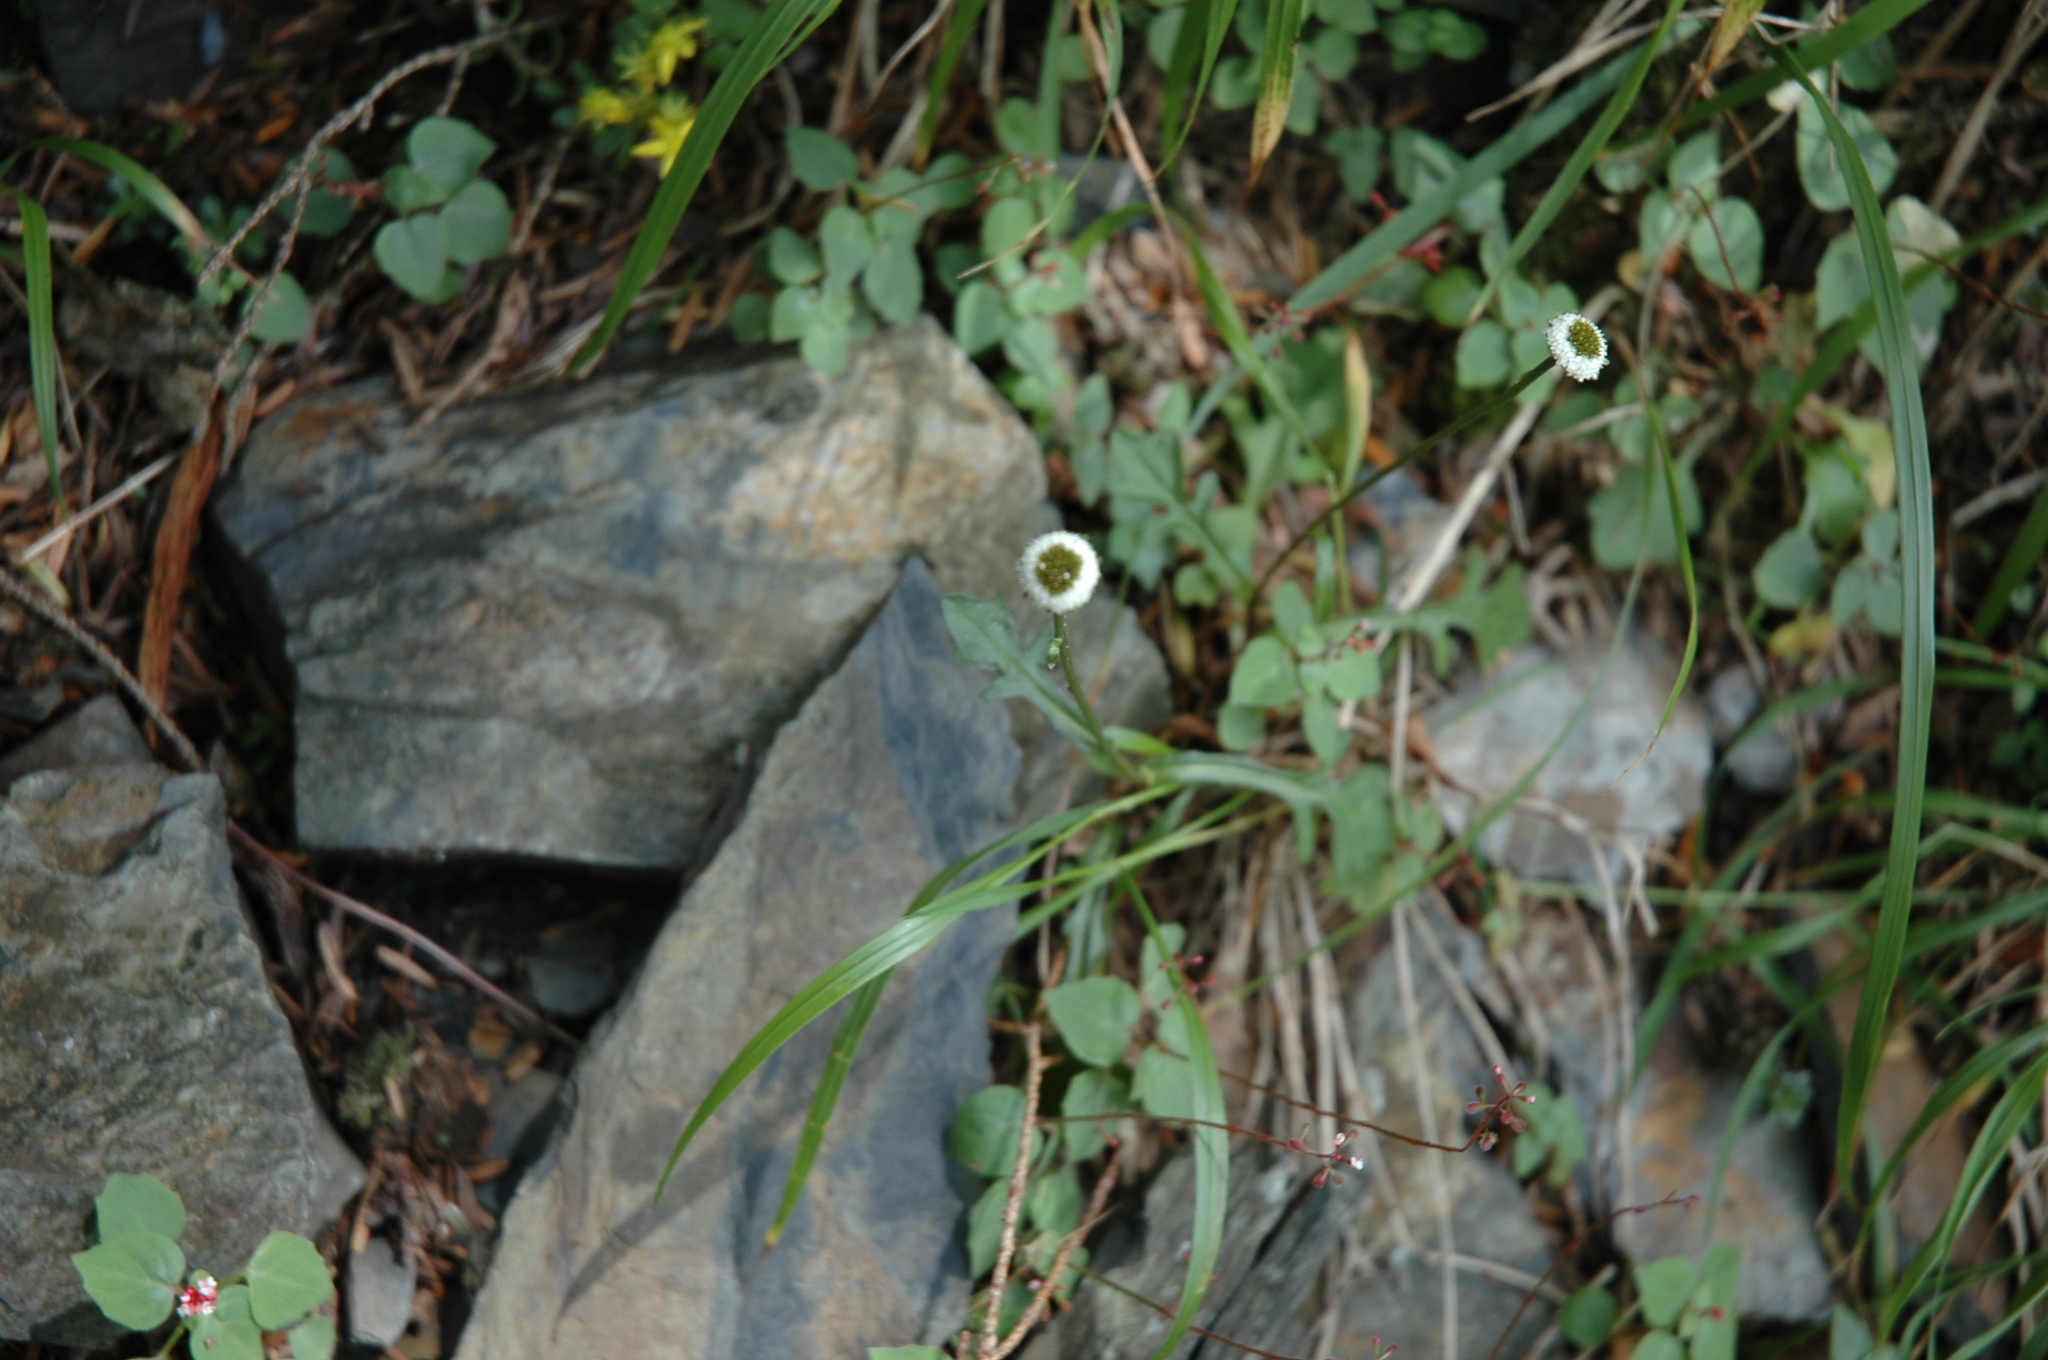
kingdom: Plantae
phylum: Tracheophyta
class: Magnoliopsida
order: Asterales
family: Asteraceae
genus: Myriactis
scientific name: Myriactis humilis
